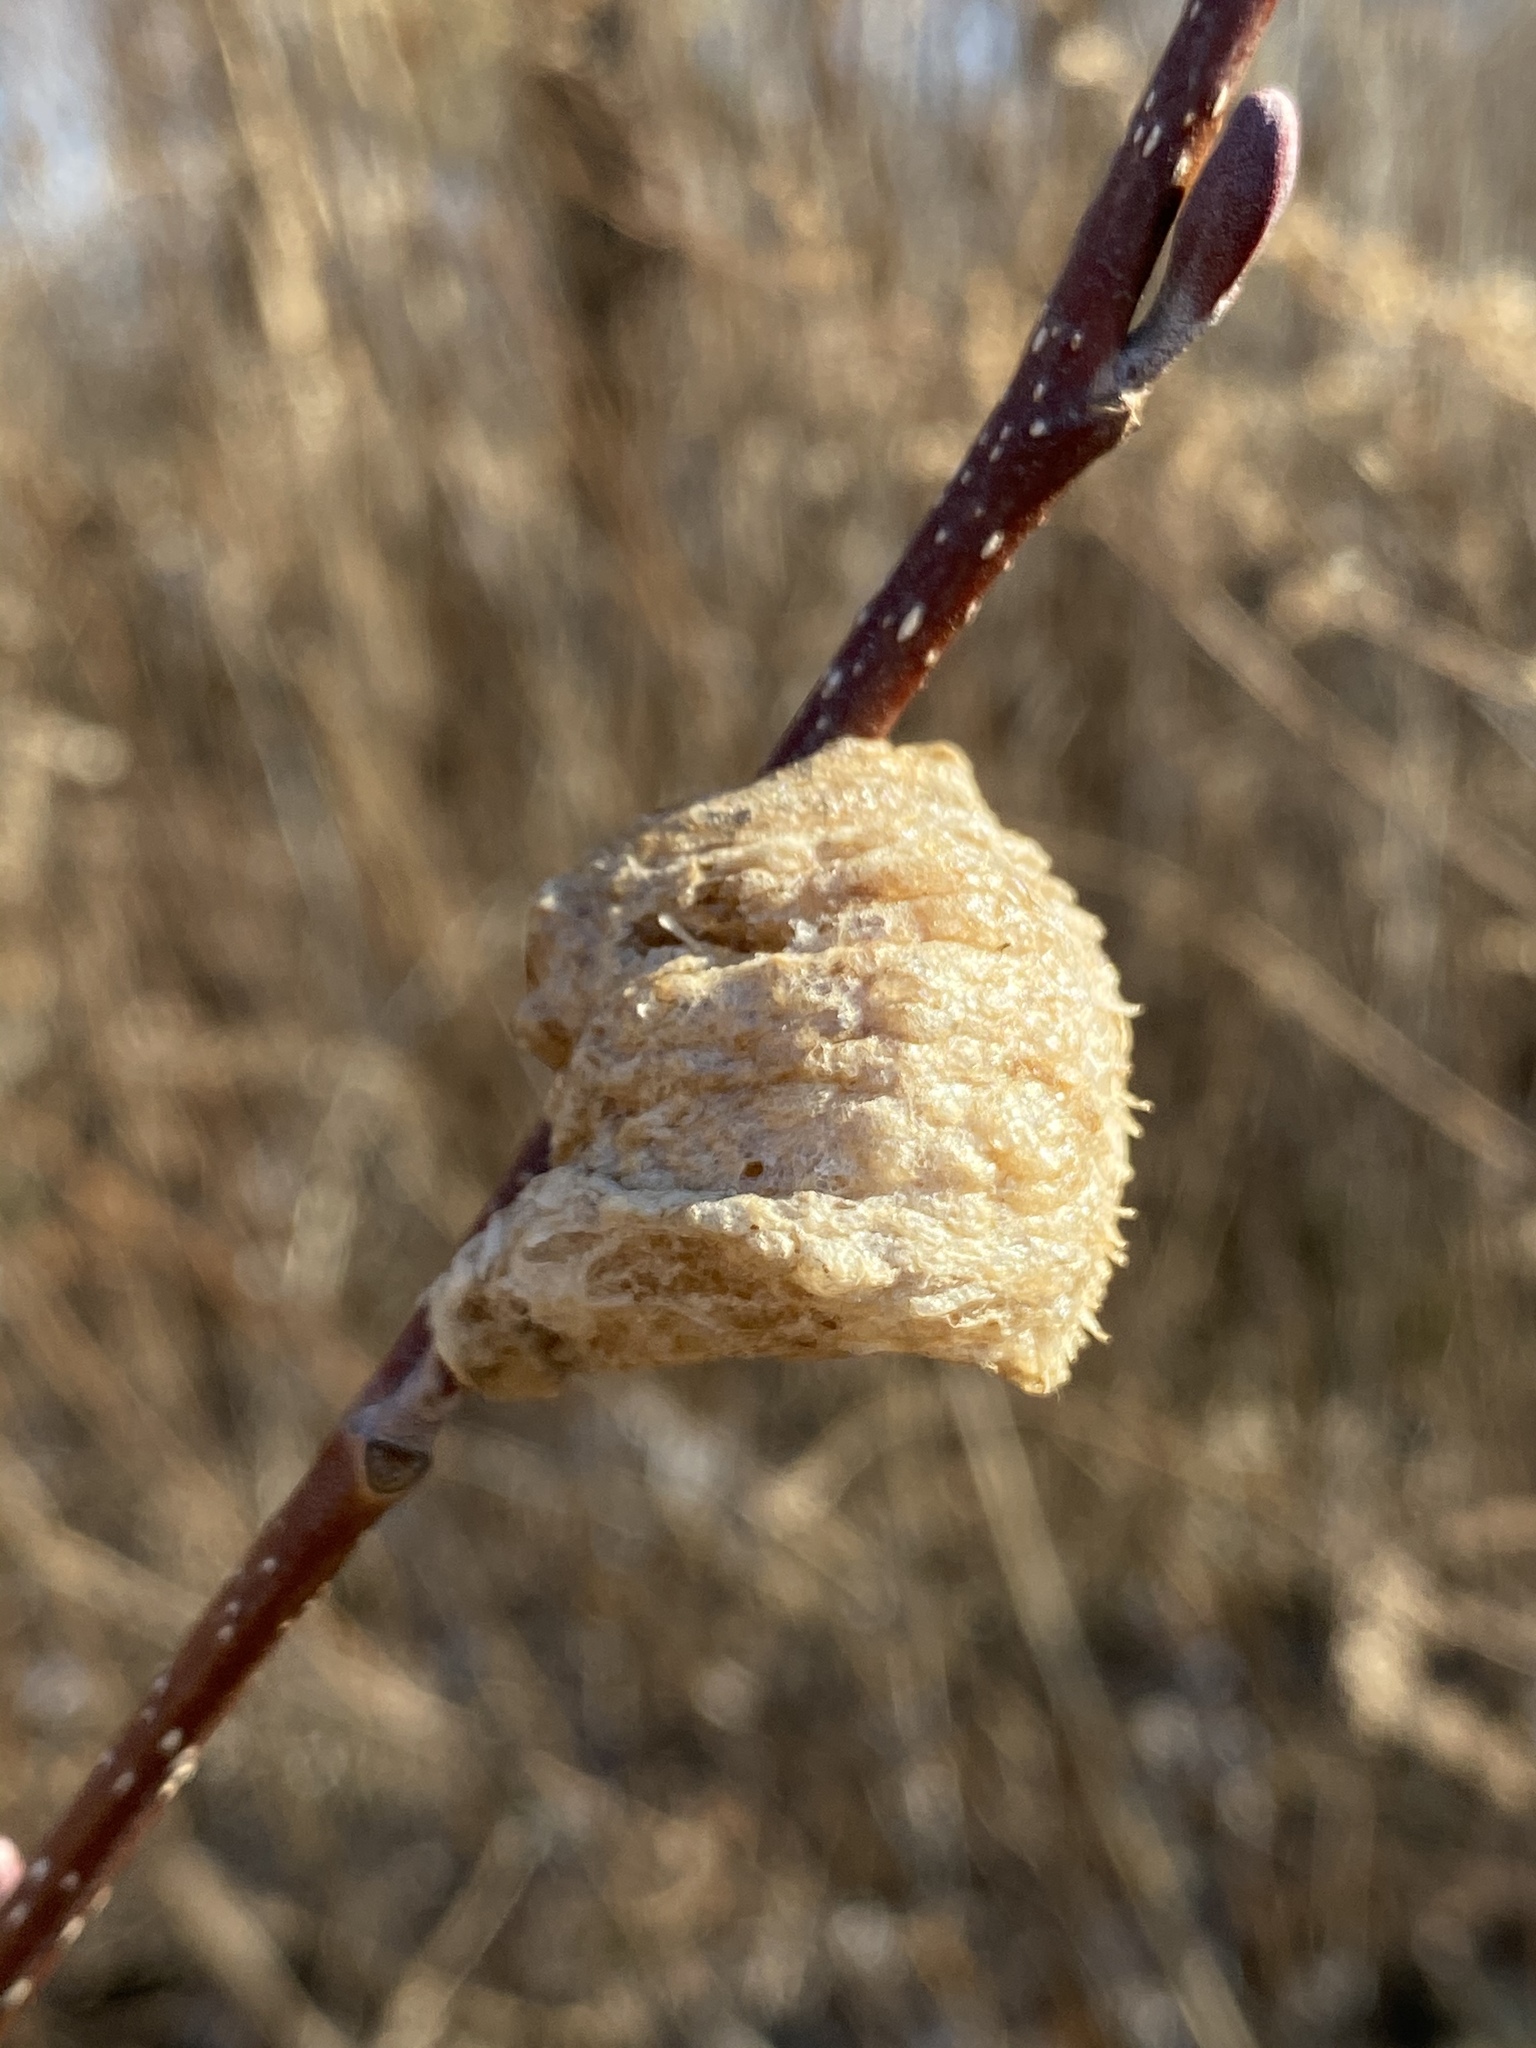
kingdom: Animalia
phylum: Arthropoda
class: Insecta
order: Mantodea
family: Mantidae
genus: Tenodera
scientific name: Tenodera sinensis
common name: Chinese mantis
